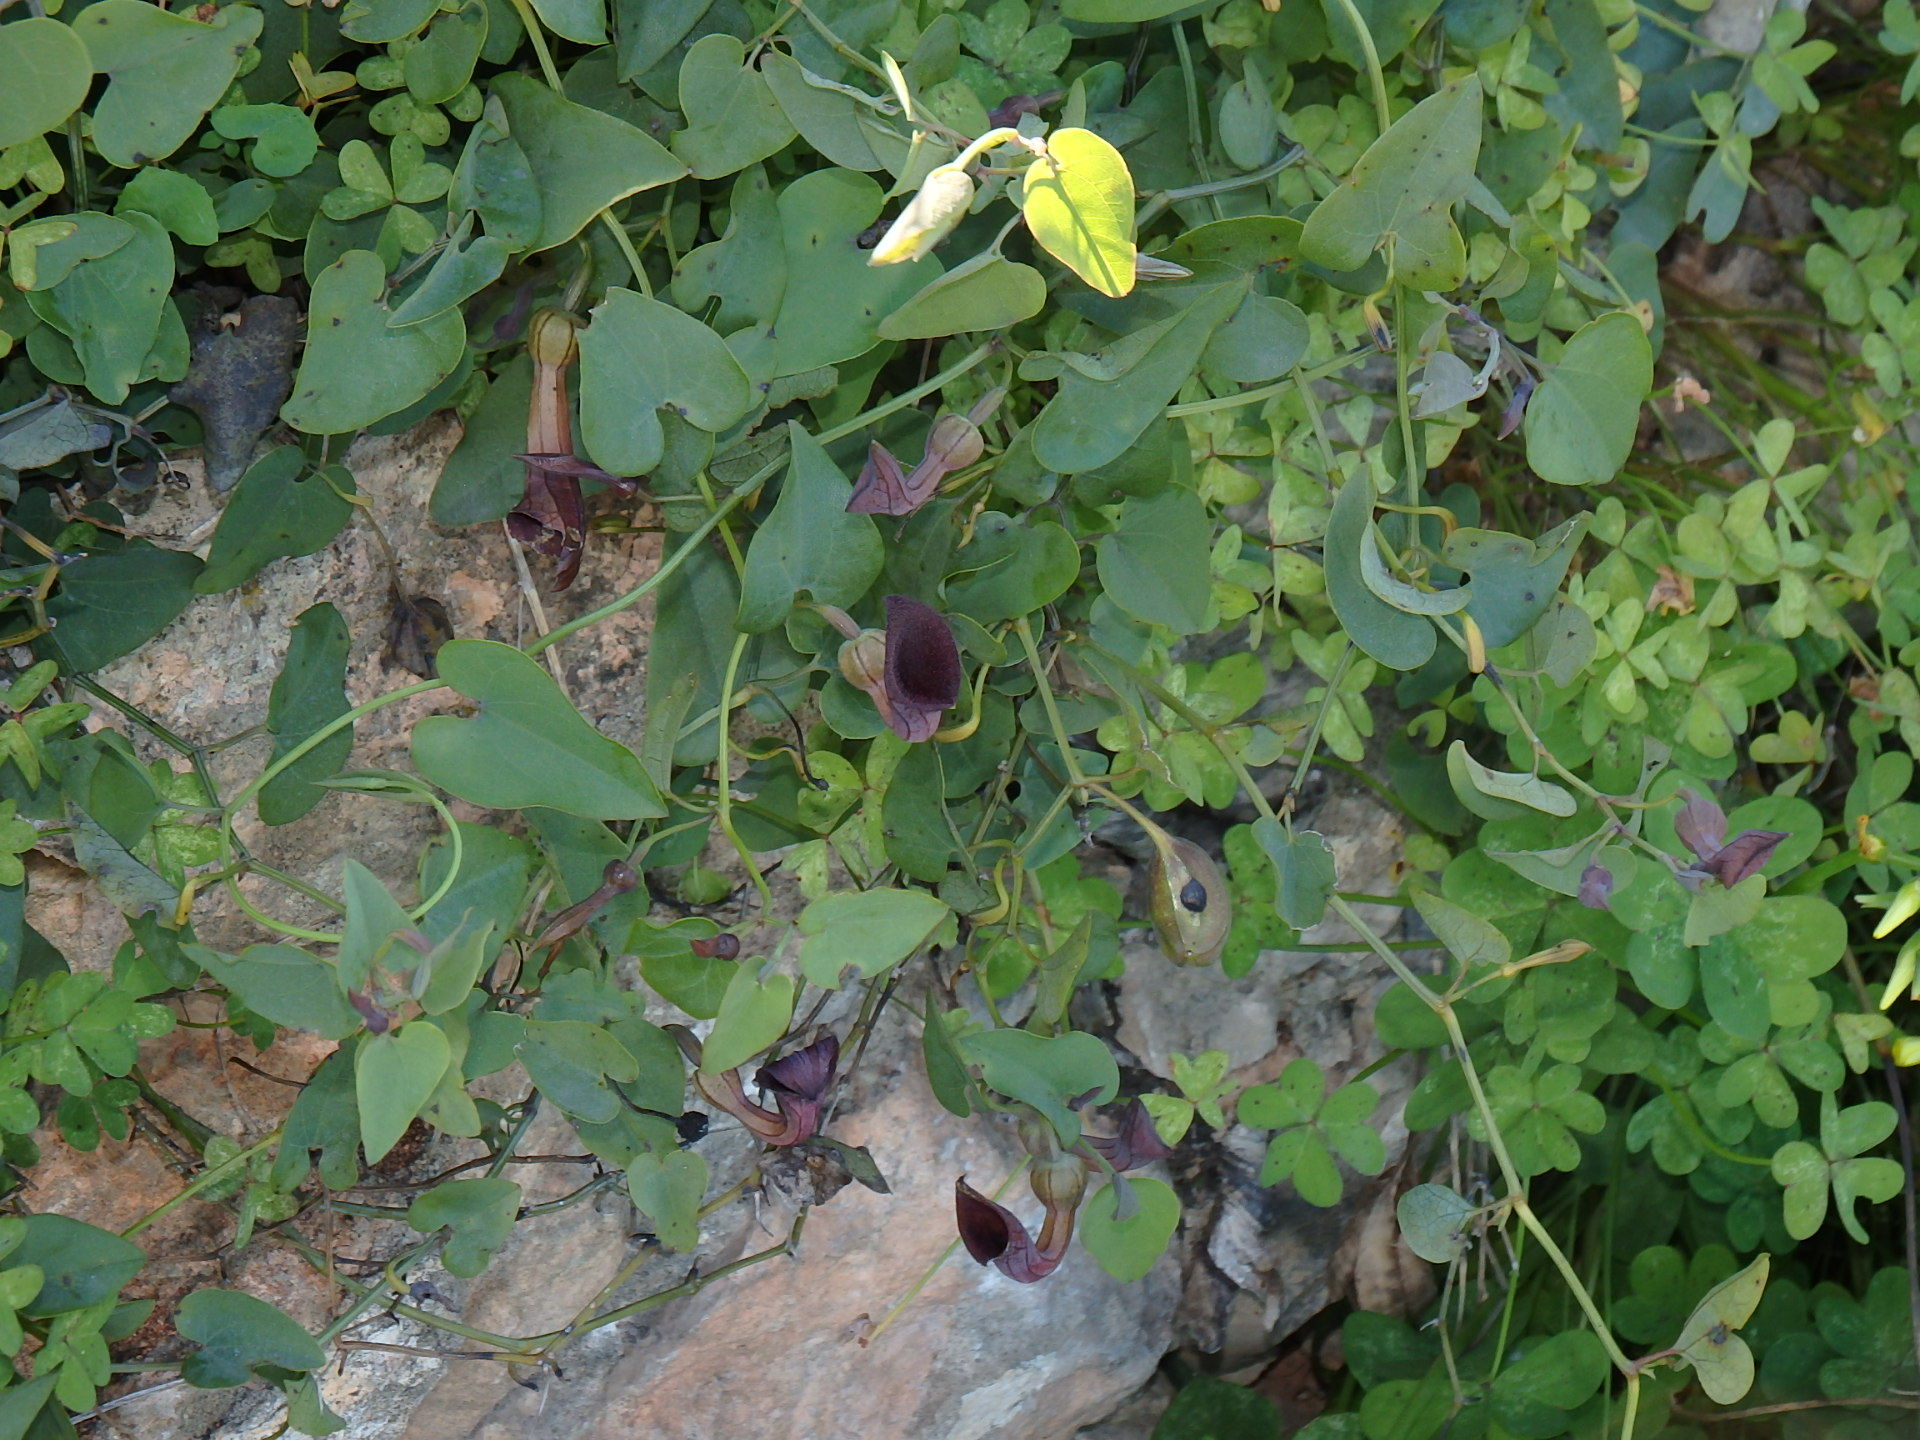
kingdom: Plantae
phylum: Tracheophyta
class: Magnoliopsida
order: Piperales
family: Aristolochiaceae
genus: Aristolochia
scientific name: Aristolochia baetica
